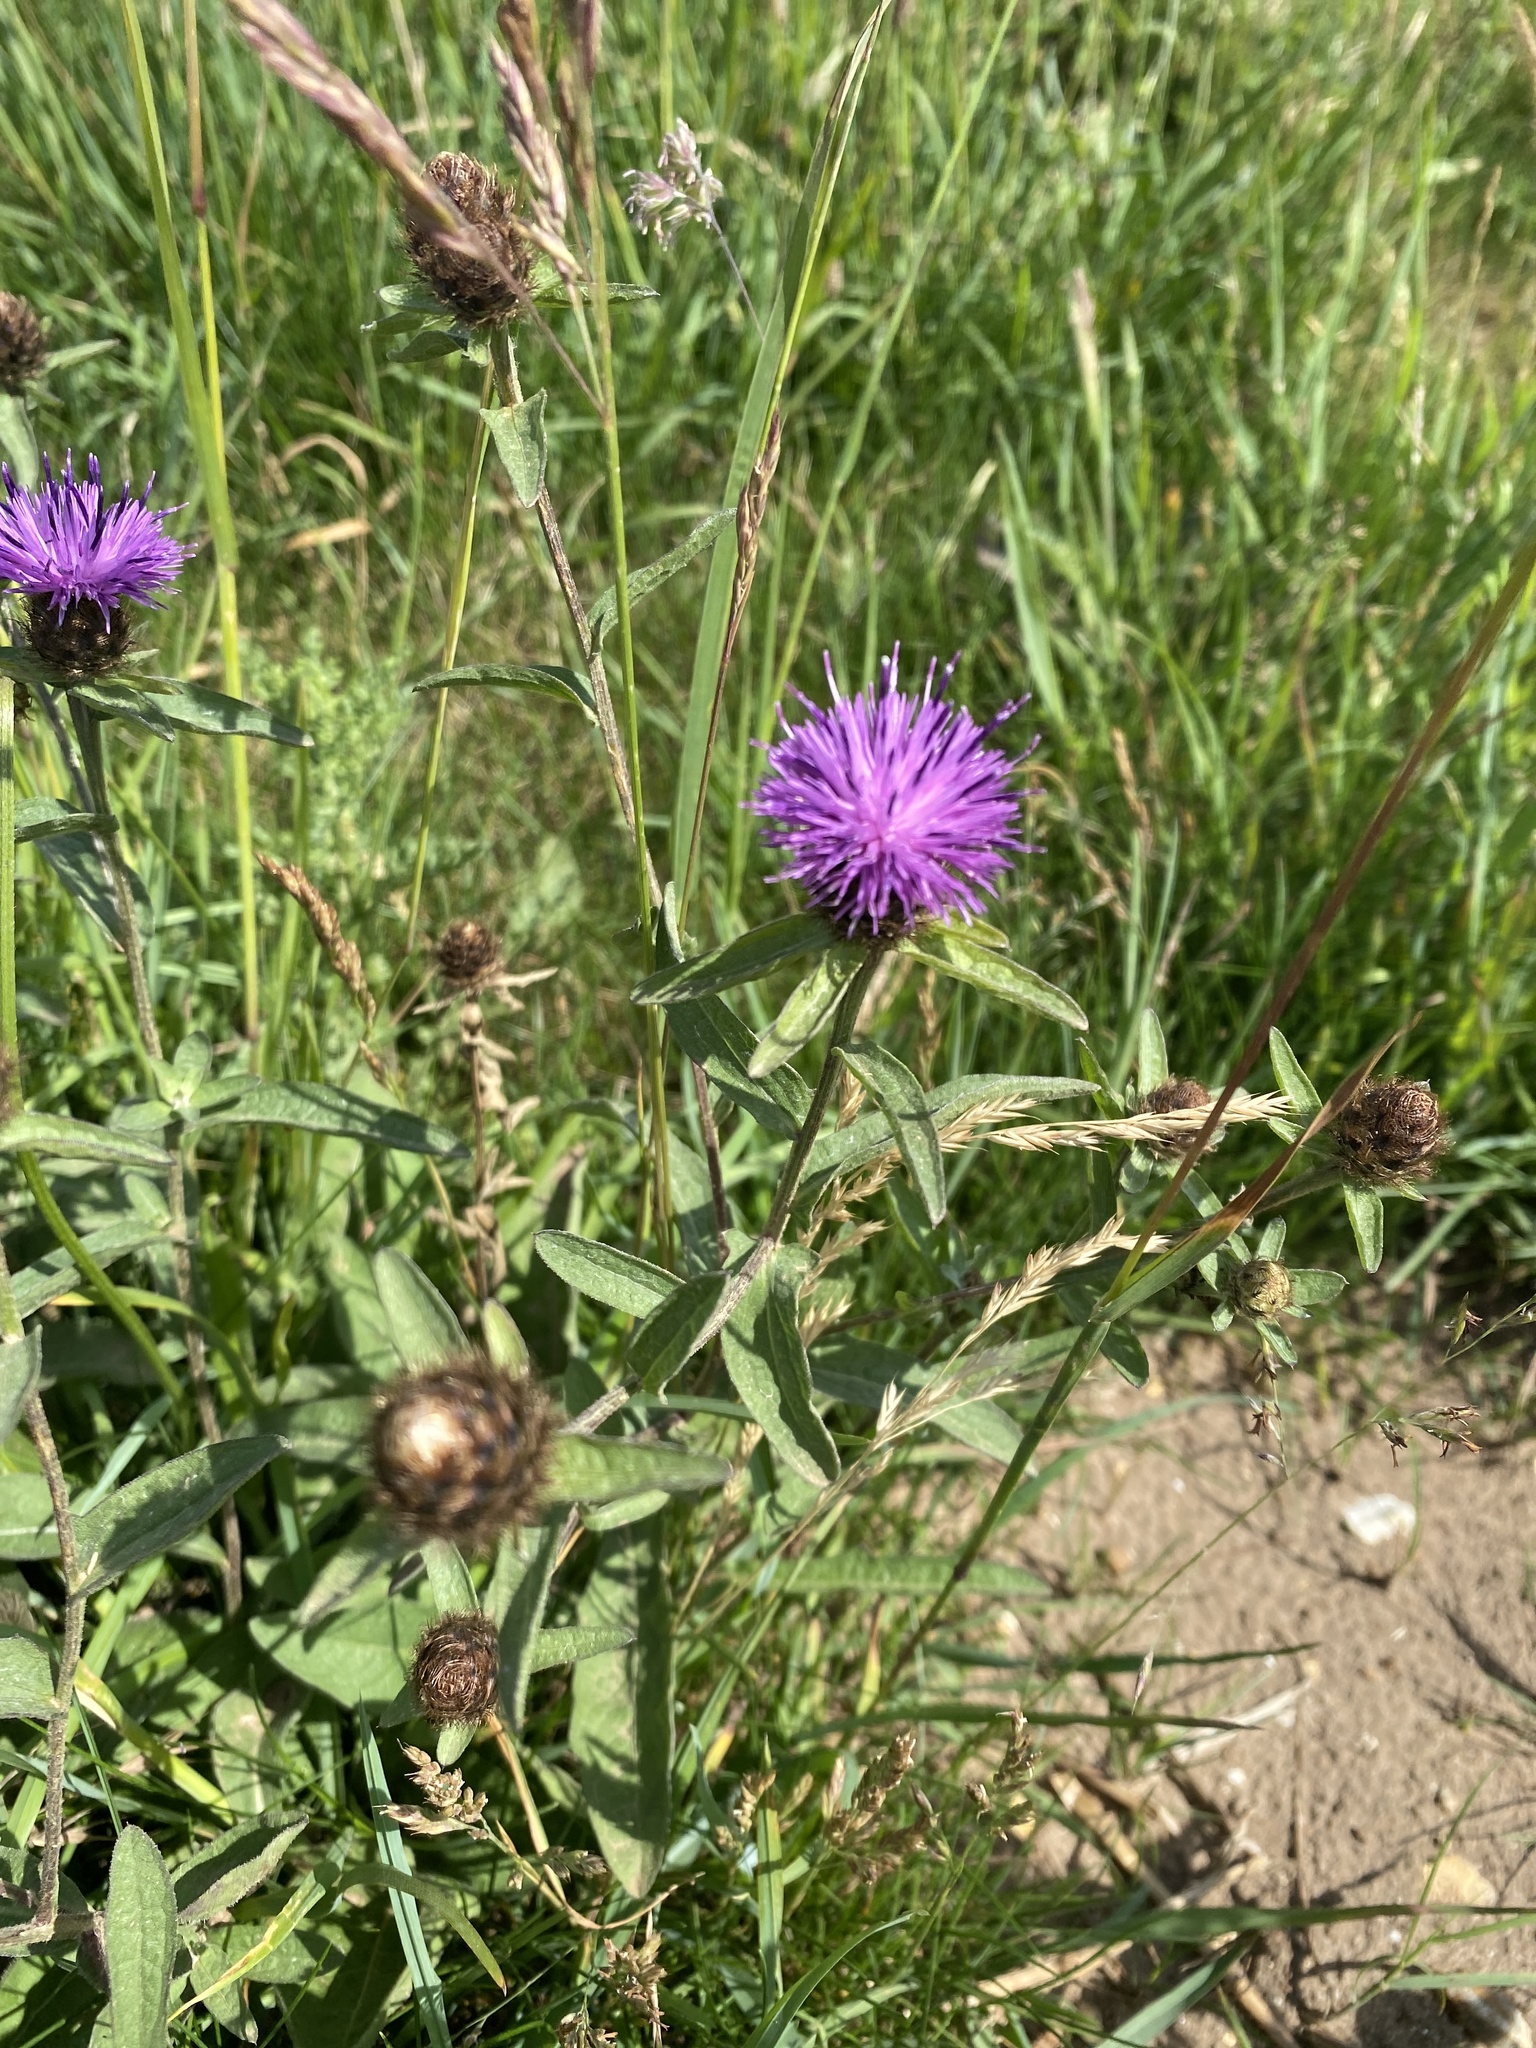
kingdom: Plantae
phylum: Tracheophyta
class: Magnoliopsida
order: Asterales
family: Asteraceae
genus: Centaurea
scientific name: Centaurea nigra
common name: Lesser knapweed
